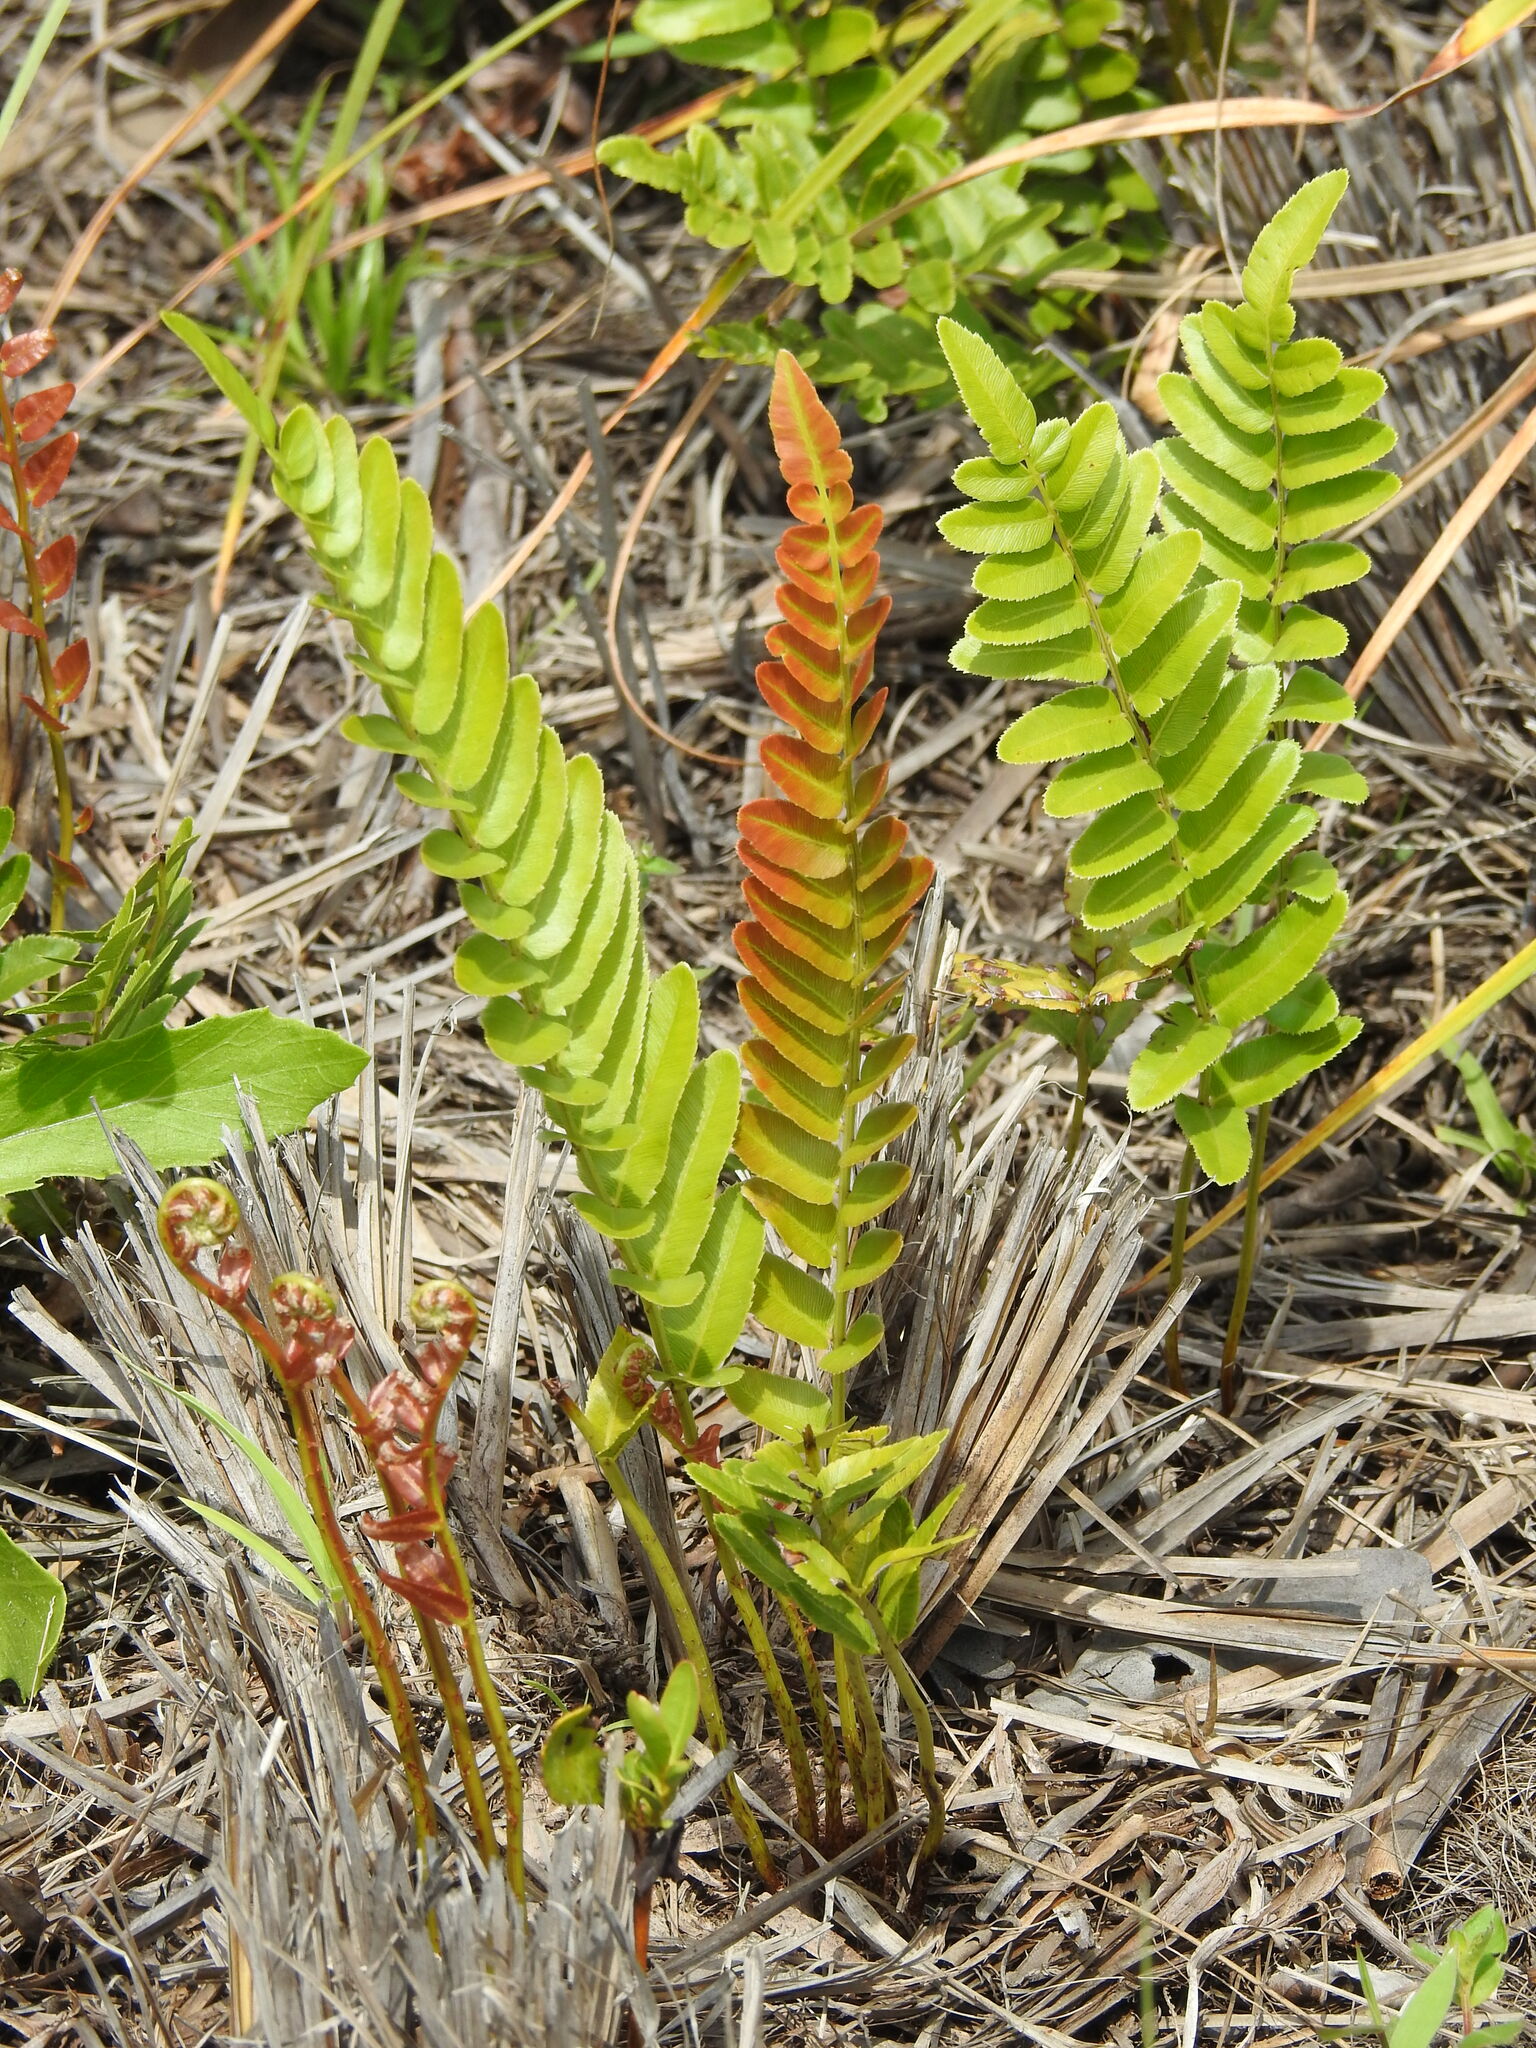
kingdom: Plantae
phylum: Tracheophyta
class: Polypodiopsida
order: Polypodiales
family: Blechnaceae
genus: Telmatoblechnum
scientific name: Telmatoblechnum serrulatum
